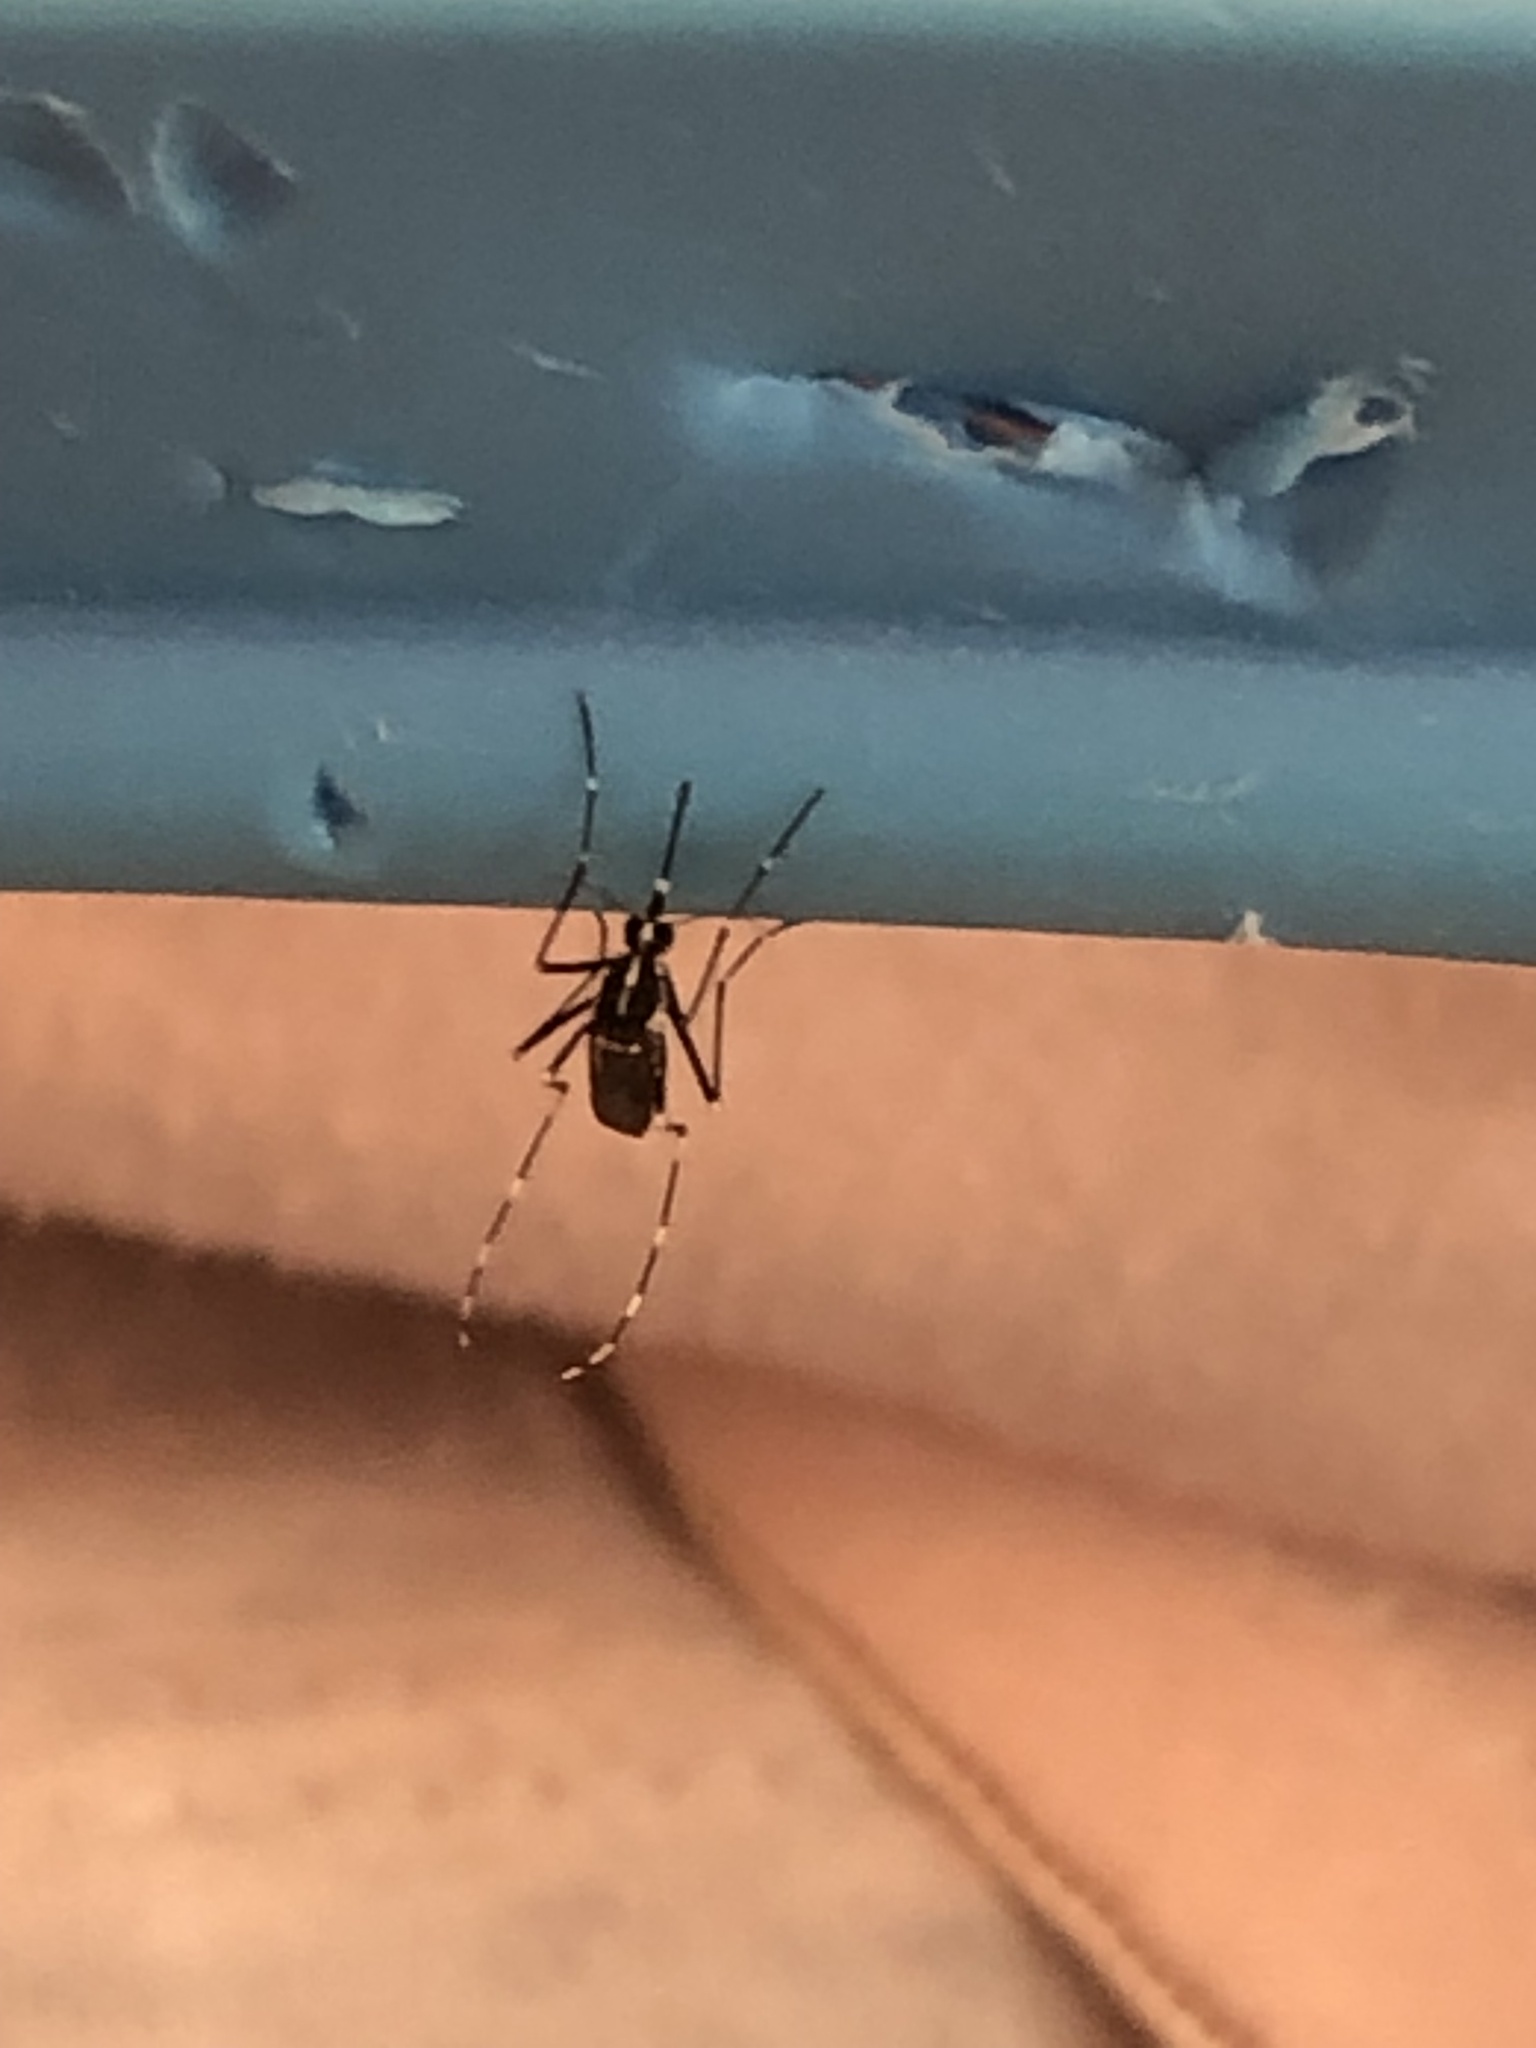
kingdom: Animalia
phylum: Arthropoda
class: Insecta
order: Diptera
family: Culicidae
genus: Aedes
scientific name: Aedes albopictus
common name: Tiger mosquito
